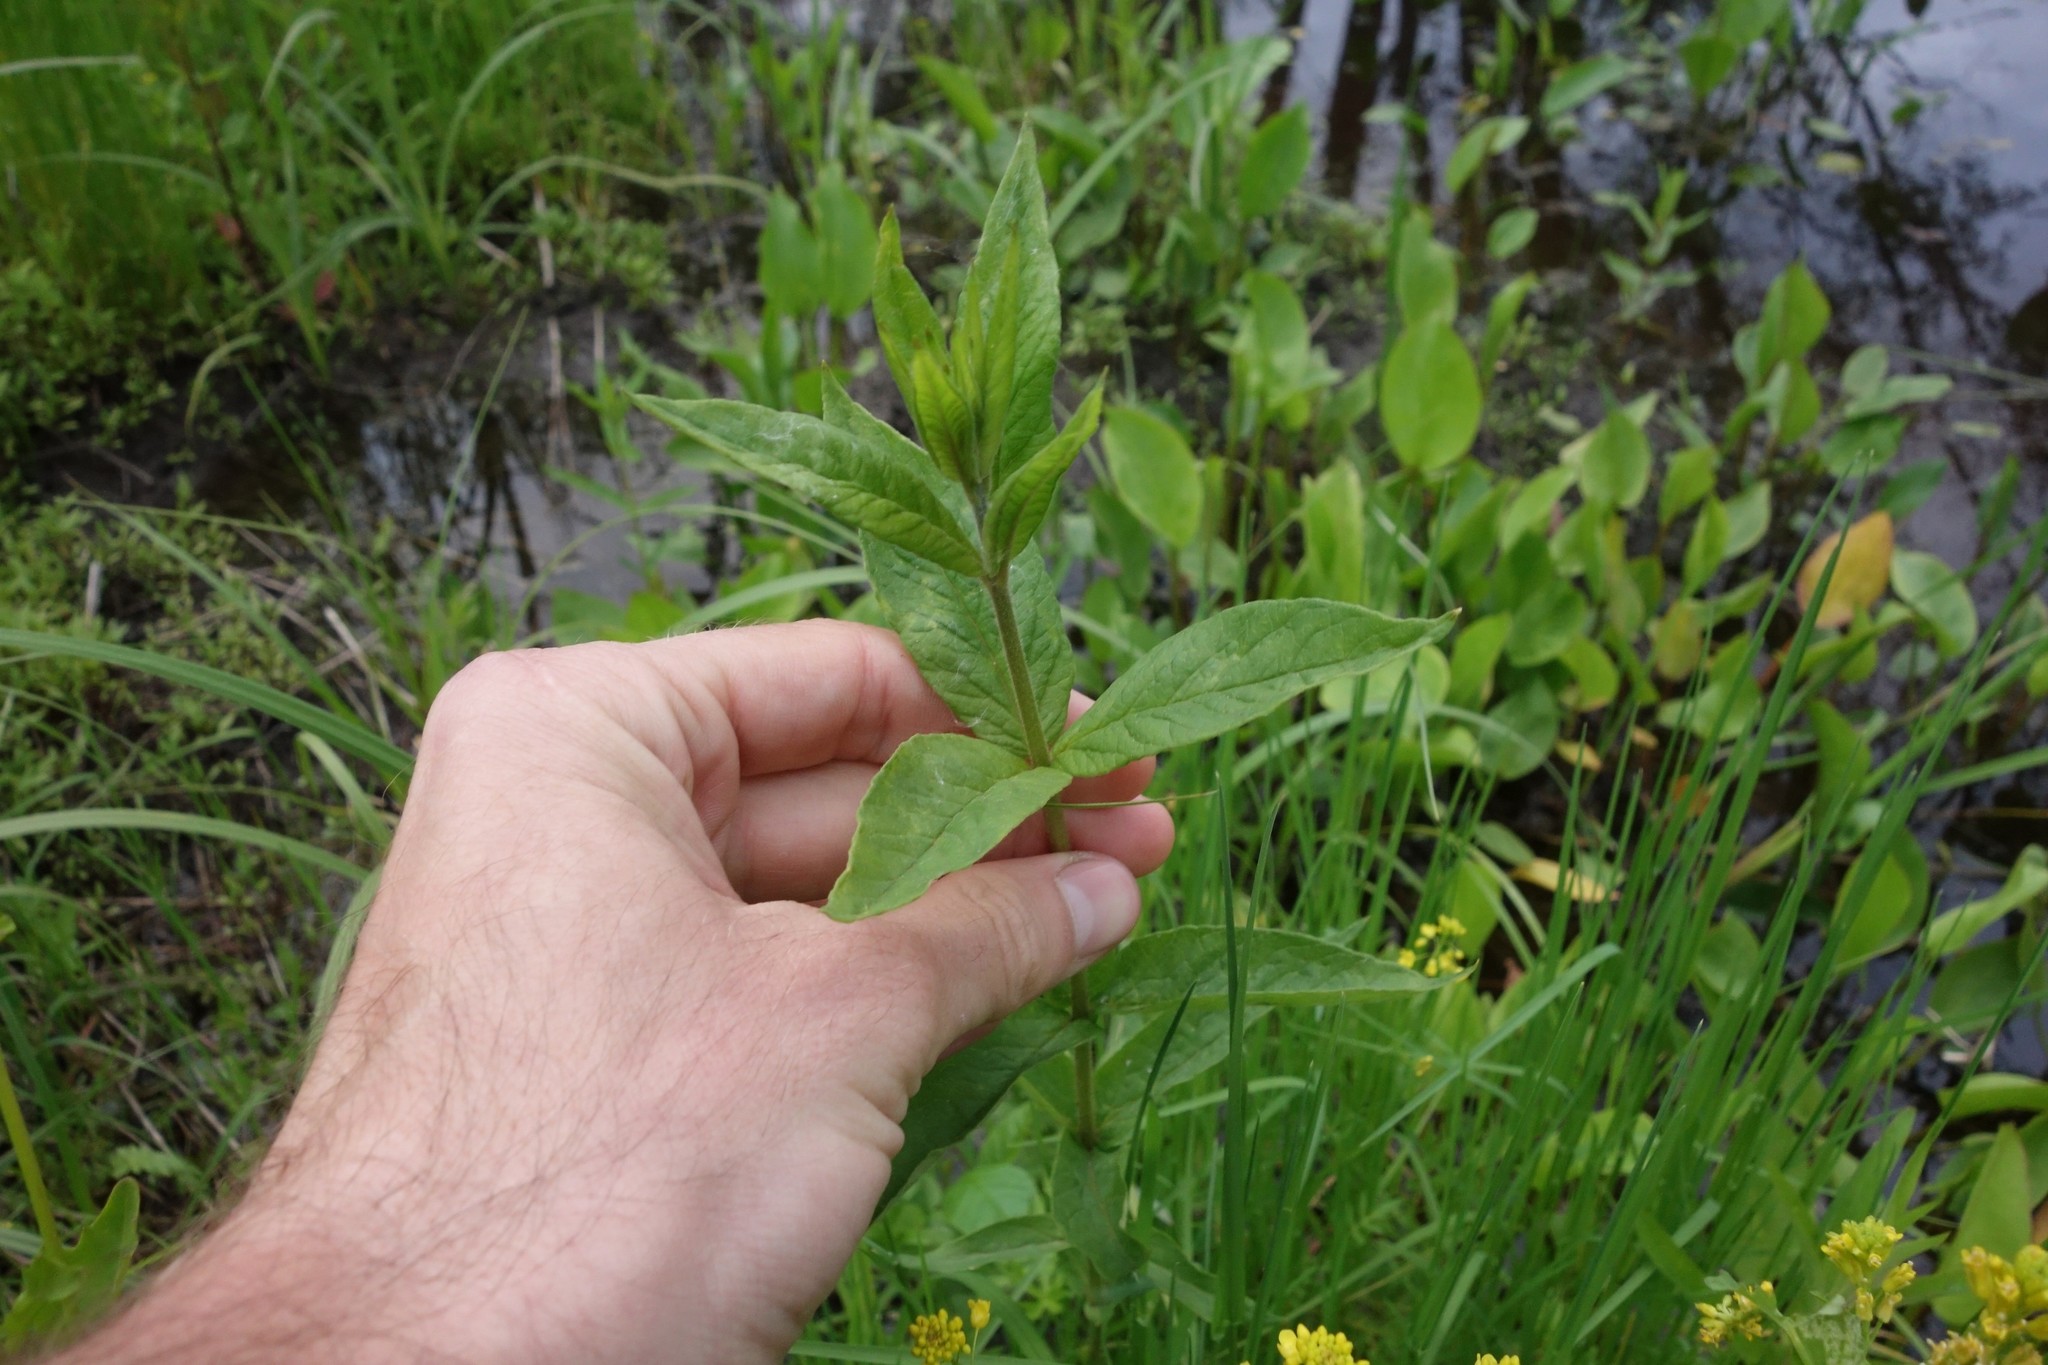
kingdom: Plantae
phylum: Tracheophyta
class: Magnoliopsida
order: Ericales
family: Primulaceae
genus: Lysimachia
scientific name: Lysimachia vulgaris
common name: Yellow loosestrife
